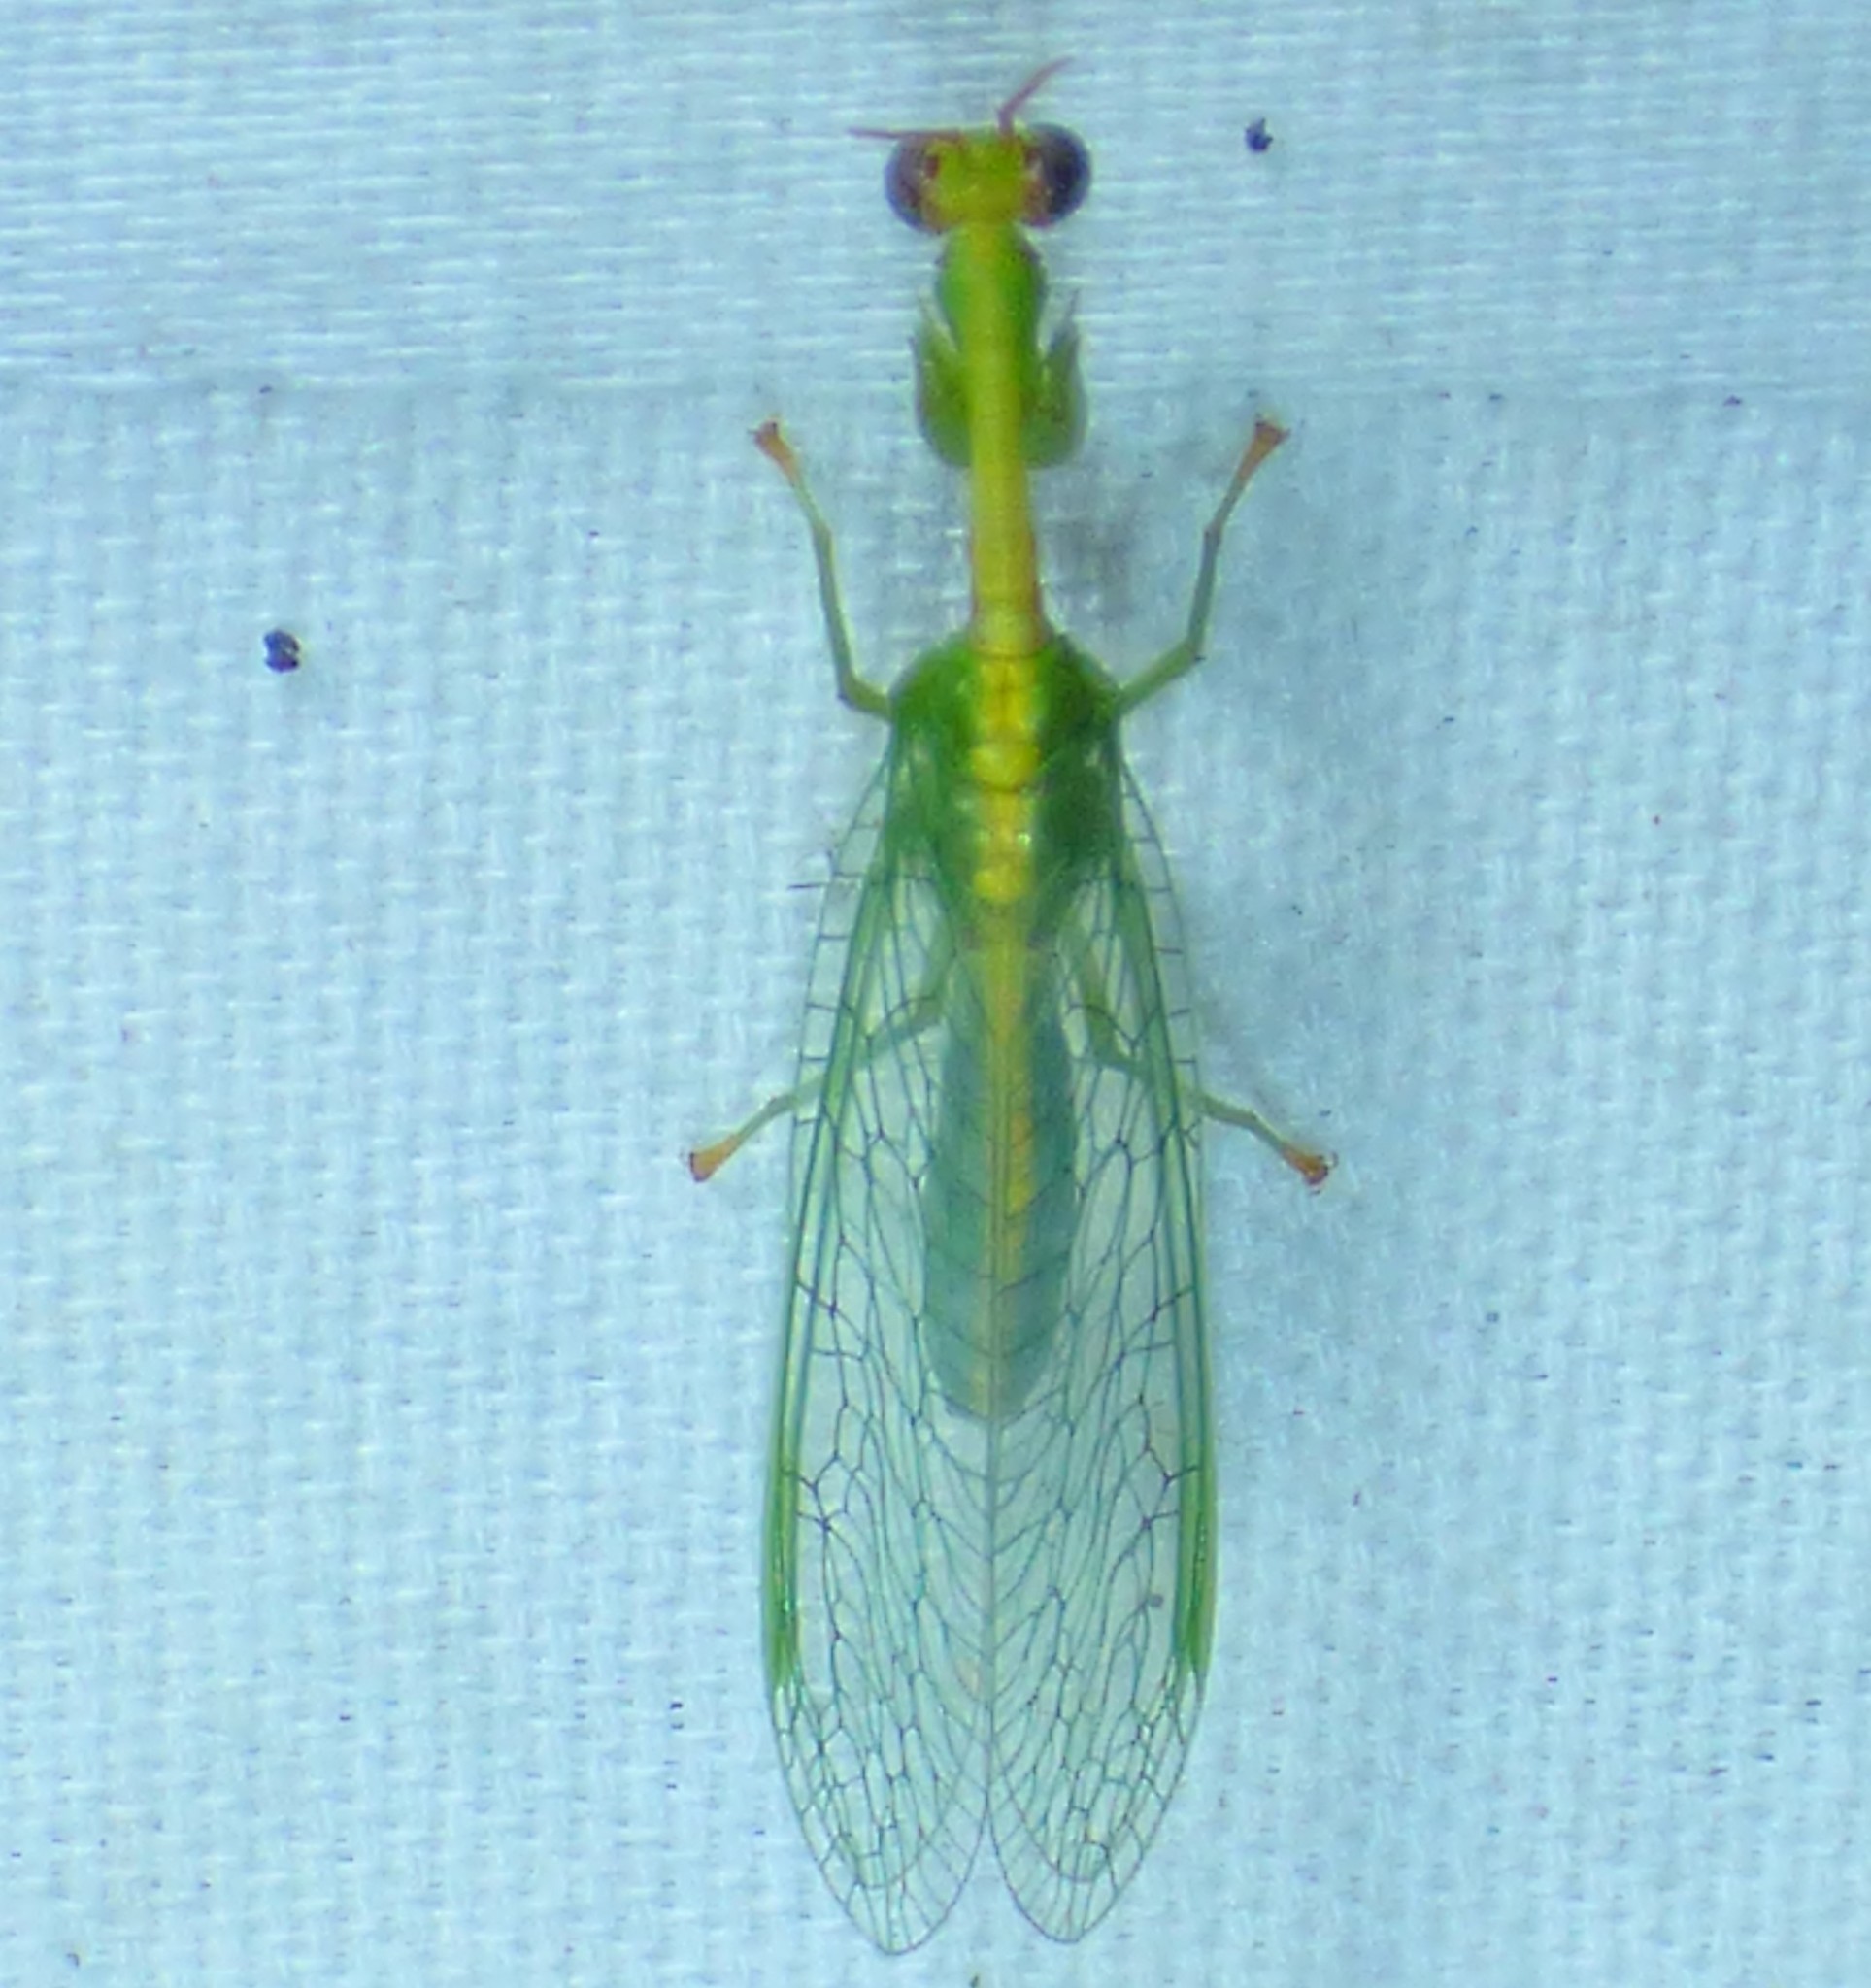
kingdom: Animalia
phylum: Arthropoda
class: Insecta
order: Neuroptera
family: Mantispidae
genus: Zeugomantispa
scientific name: Zeugomantispa minuta
